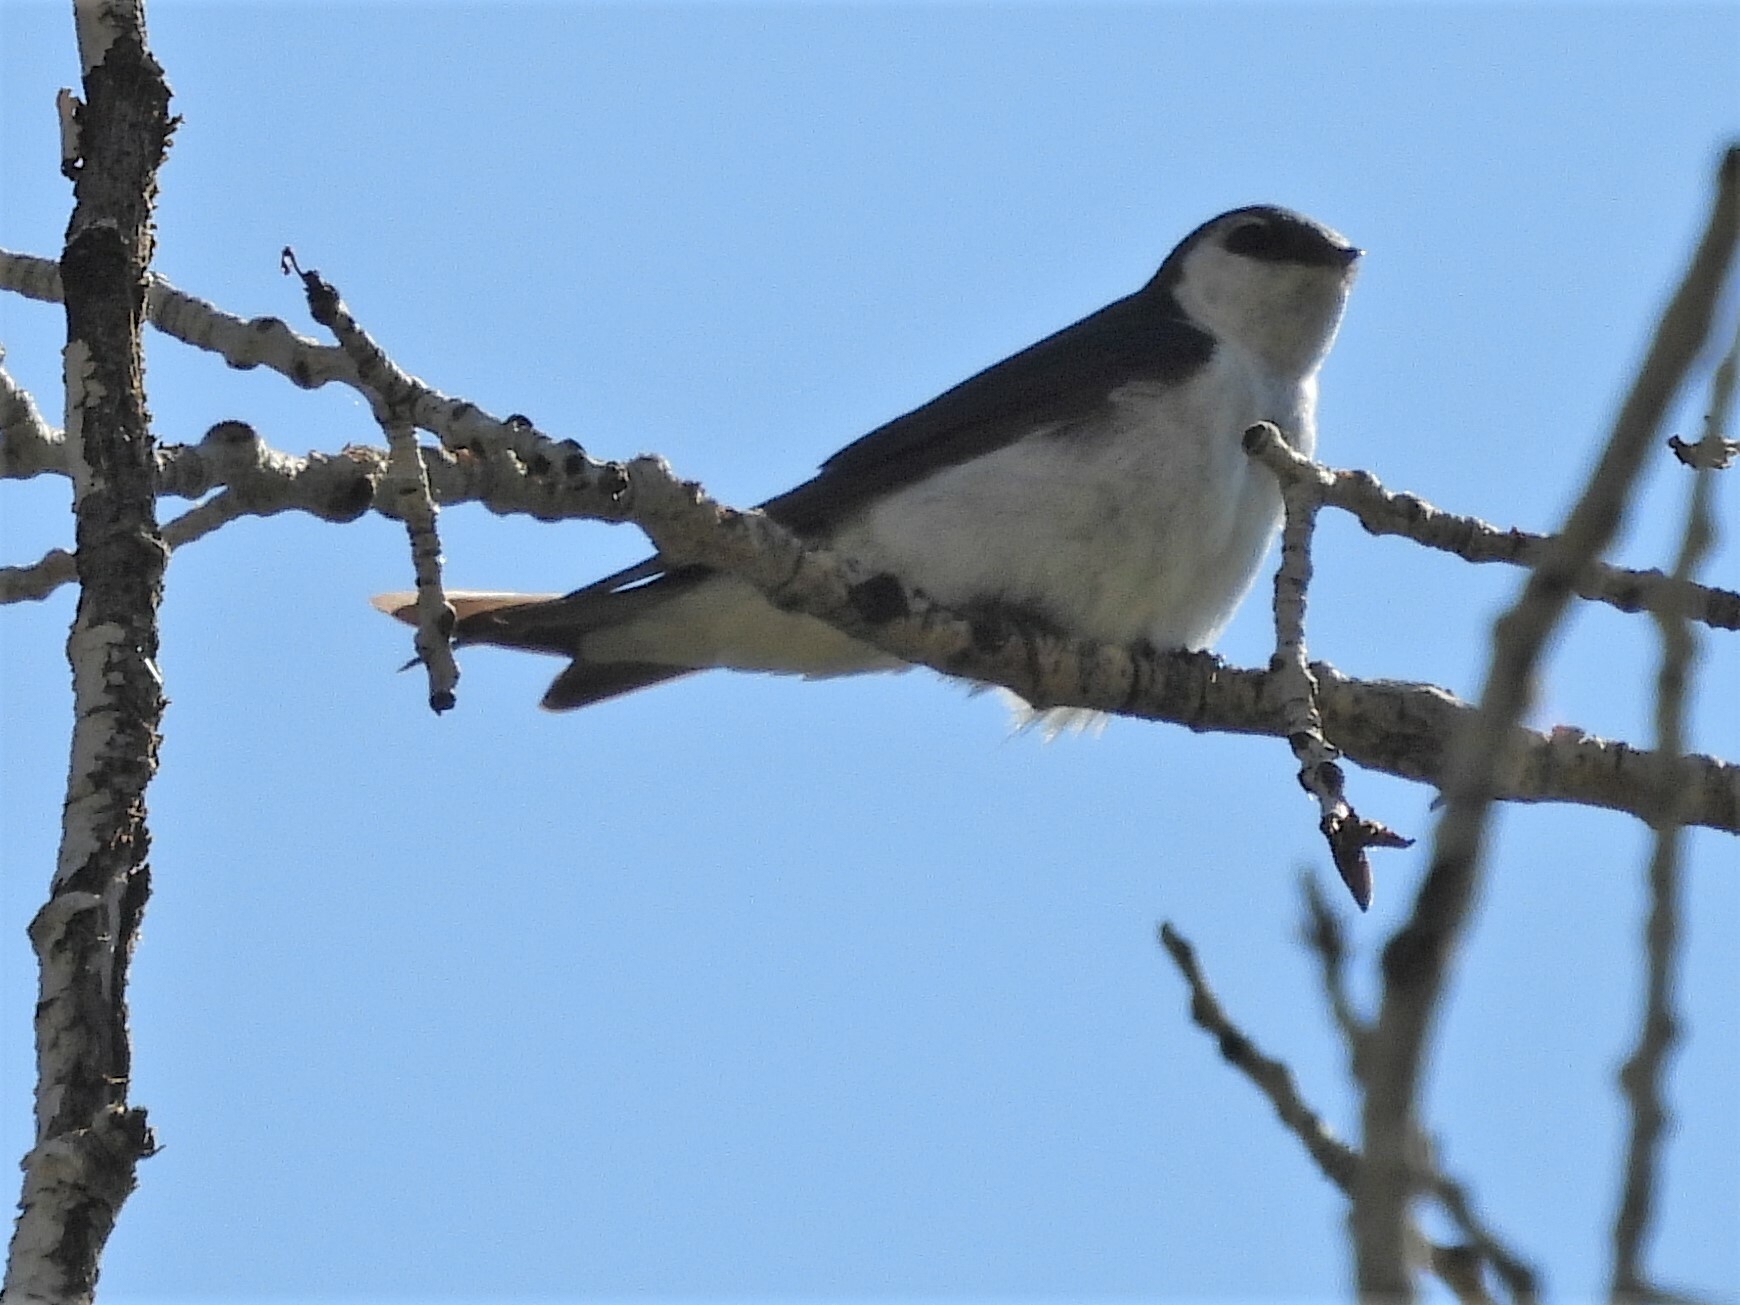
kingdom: Animalia
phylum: Chordata
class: Aves
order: Passeriformes
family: Hirundinidae
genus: Tachycineta
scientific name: Tachycineta thalassina
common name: Violet-green swallow
